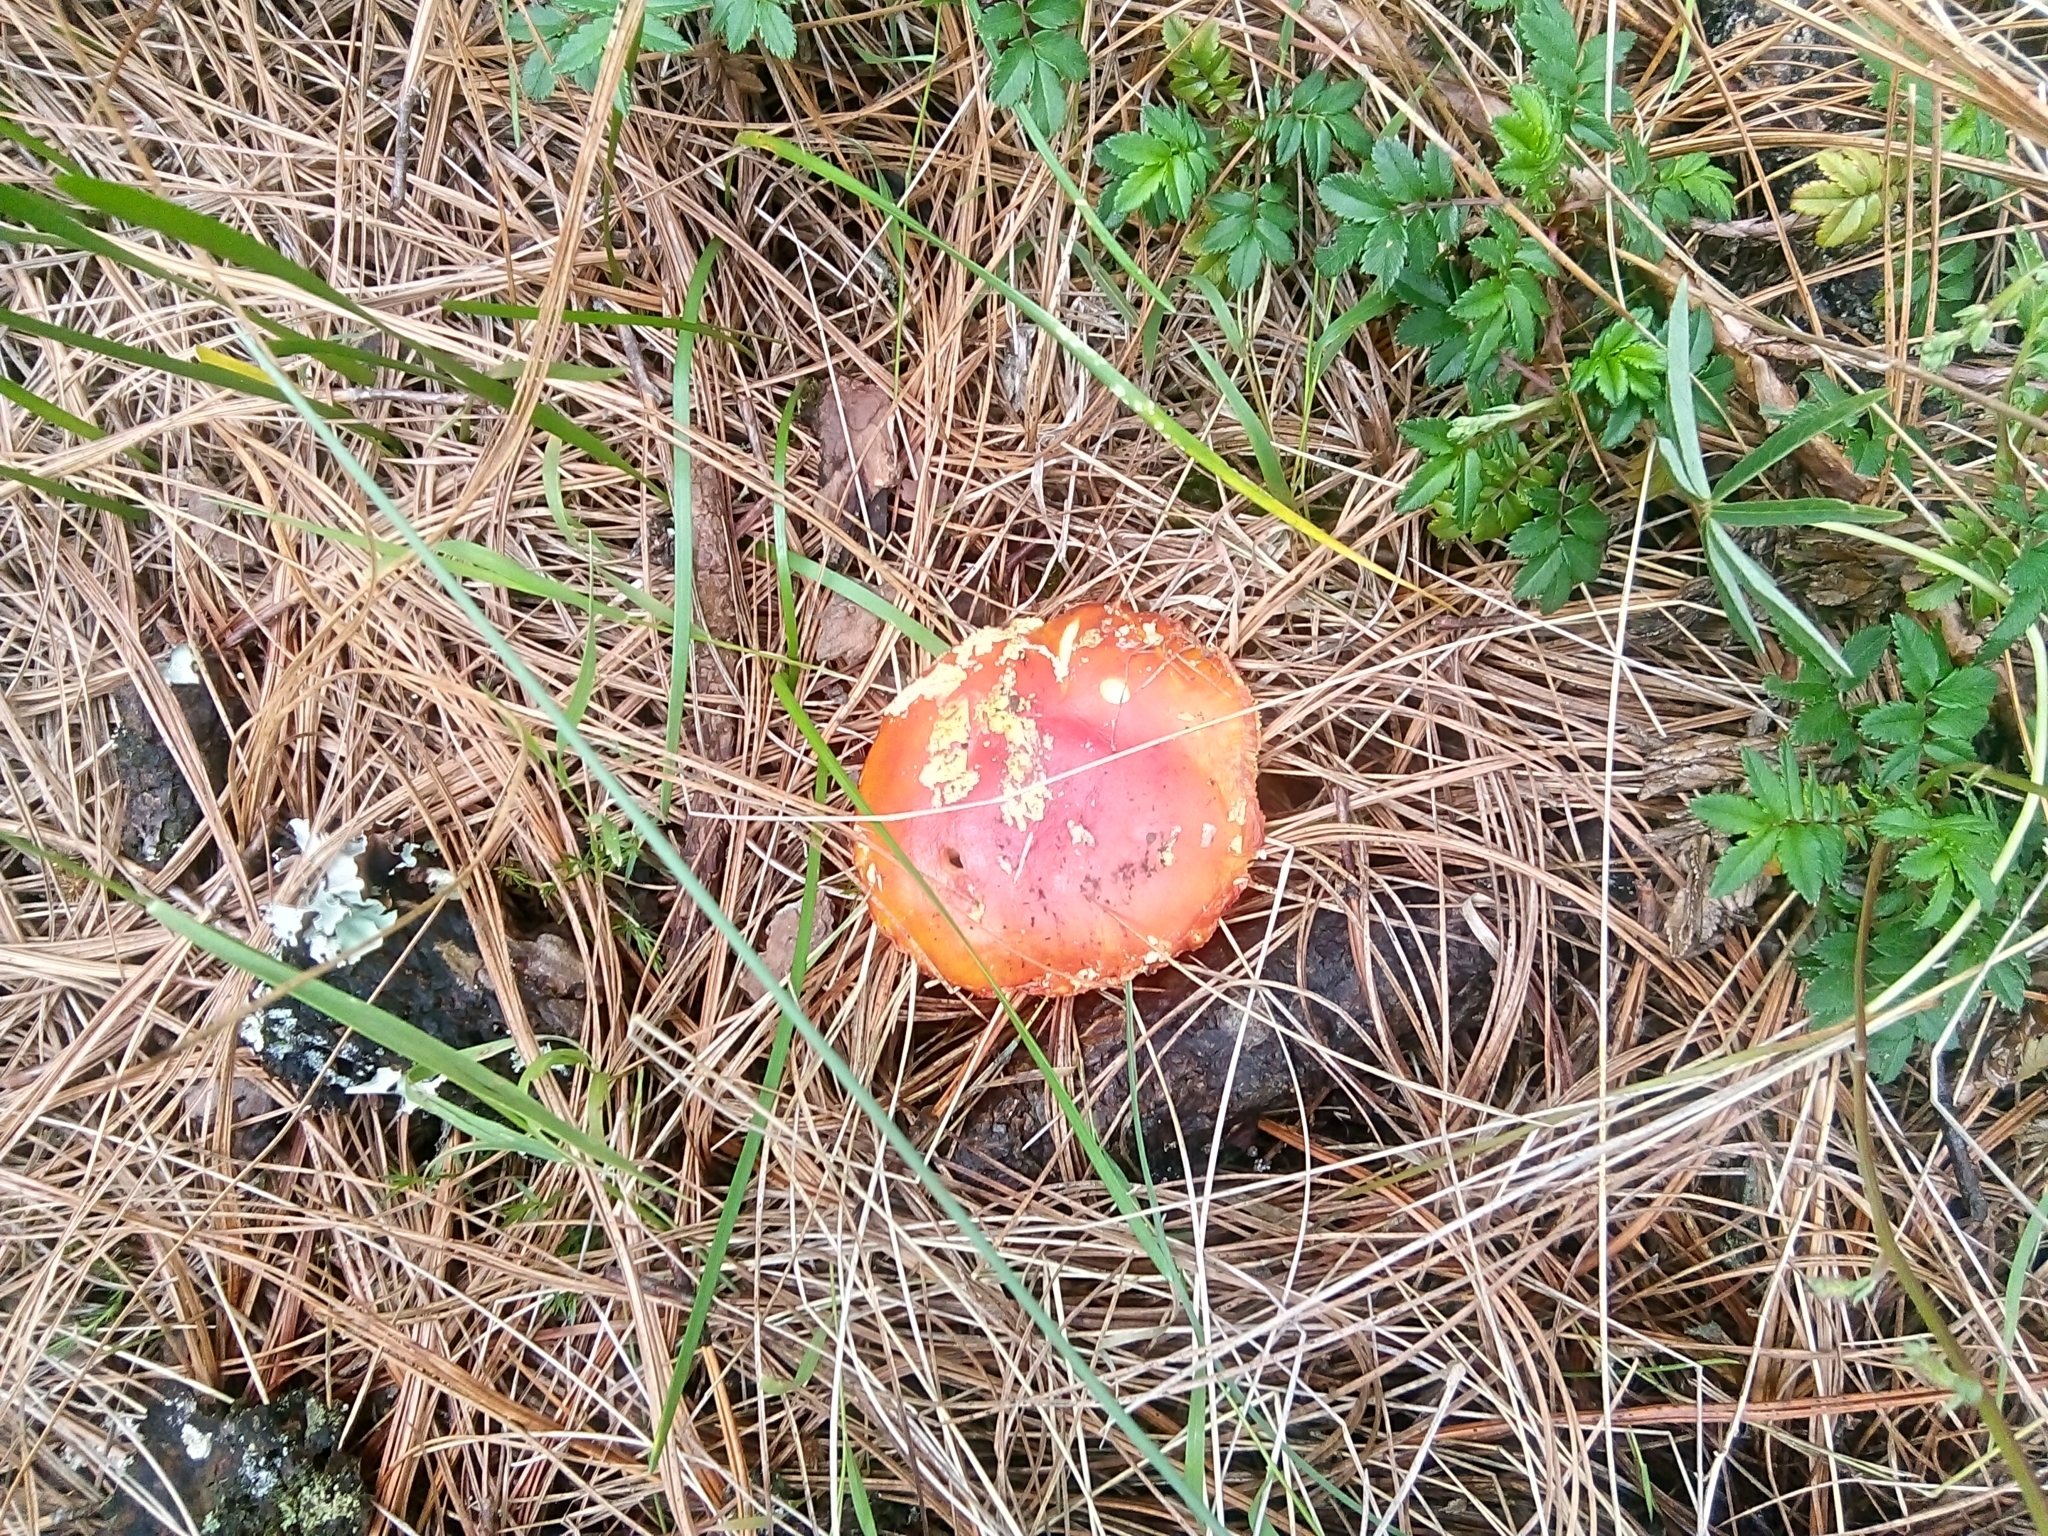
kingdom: Fungi
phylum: Basidiomycota
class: Agaricomycetes
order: Agaricales
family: Amanitaceae
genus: Amanita
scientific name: Amanita muscaria
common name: Fly agaric
